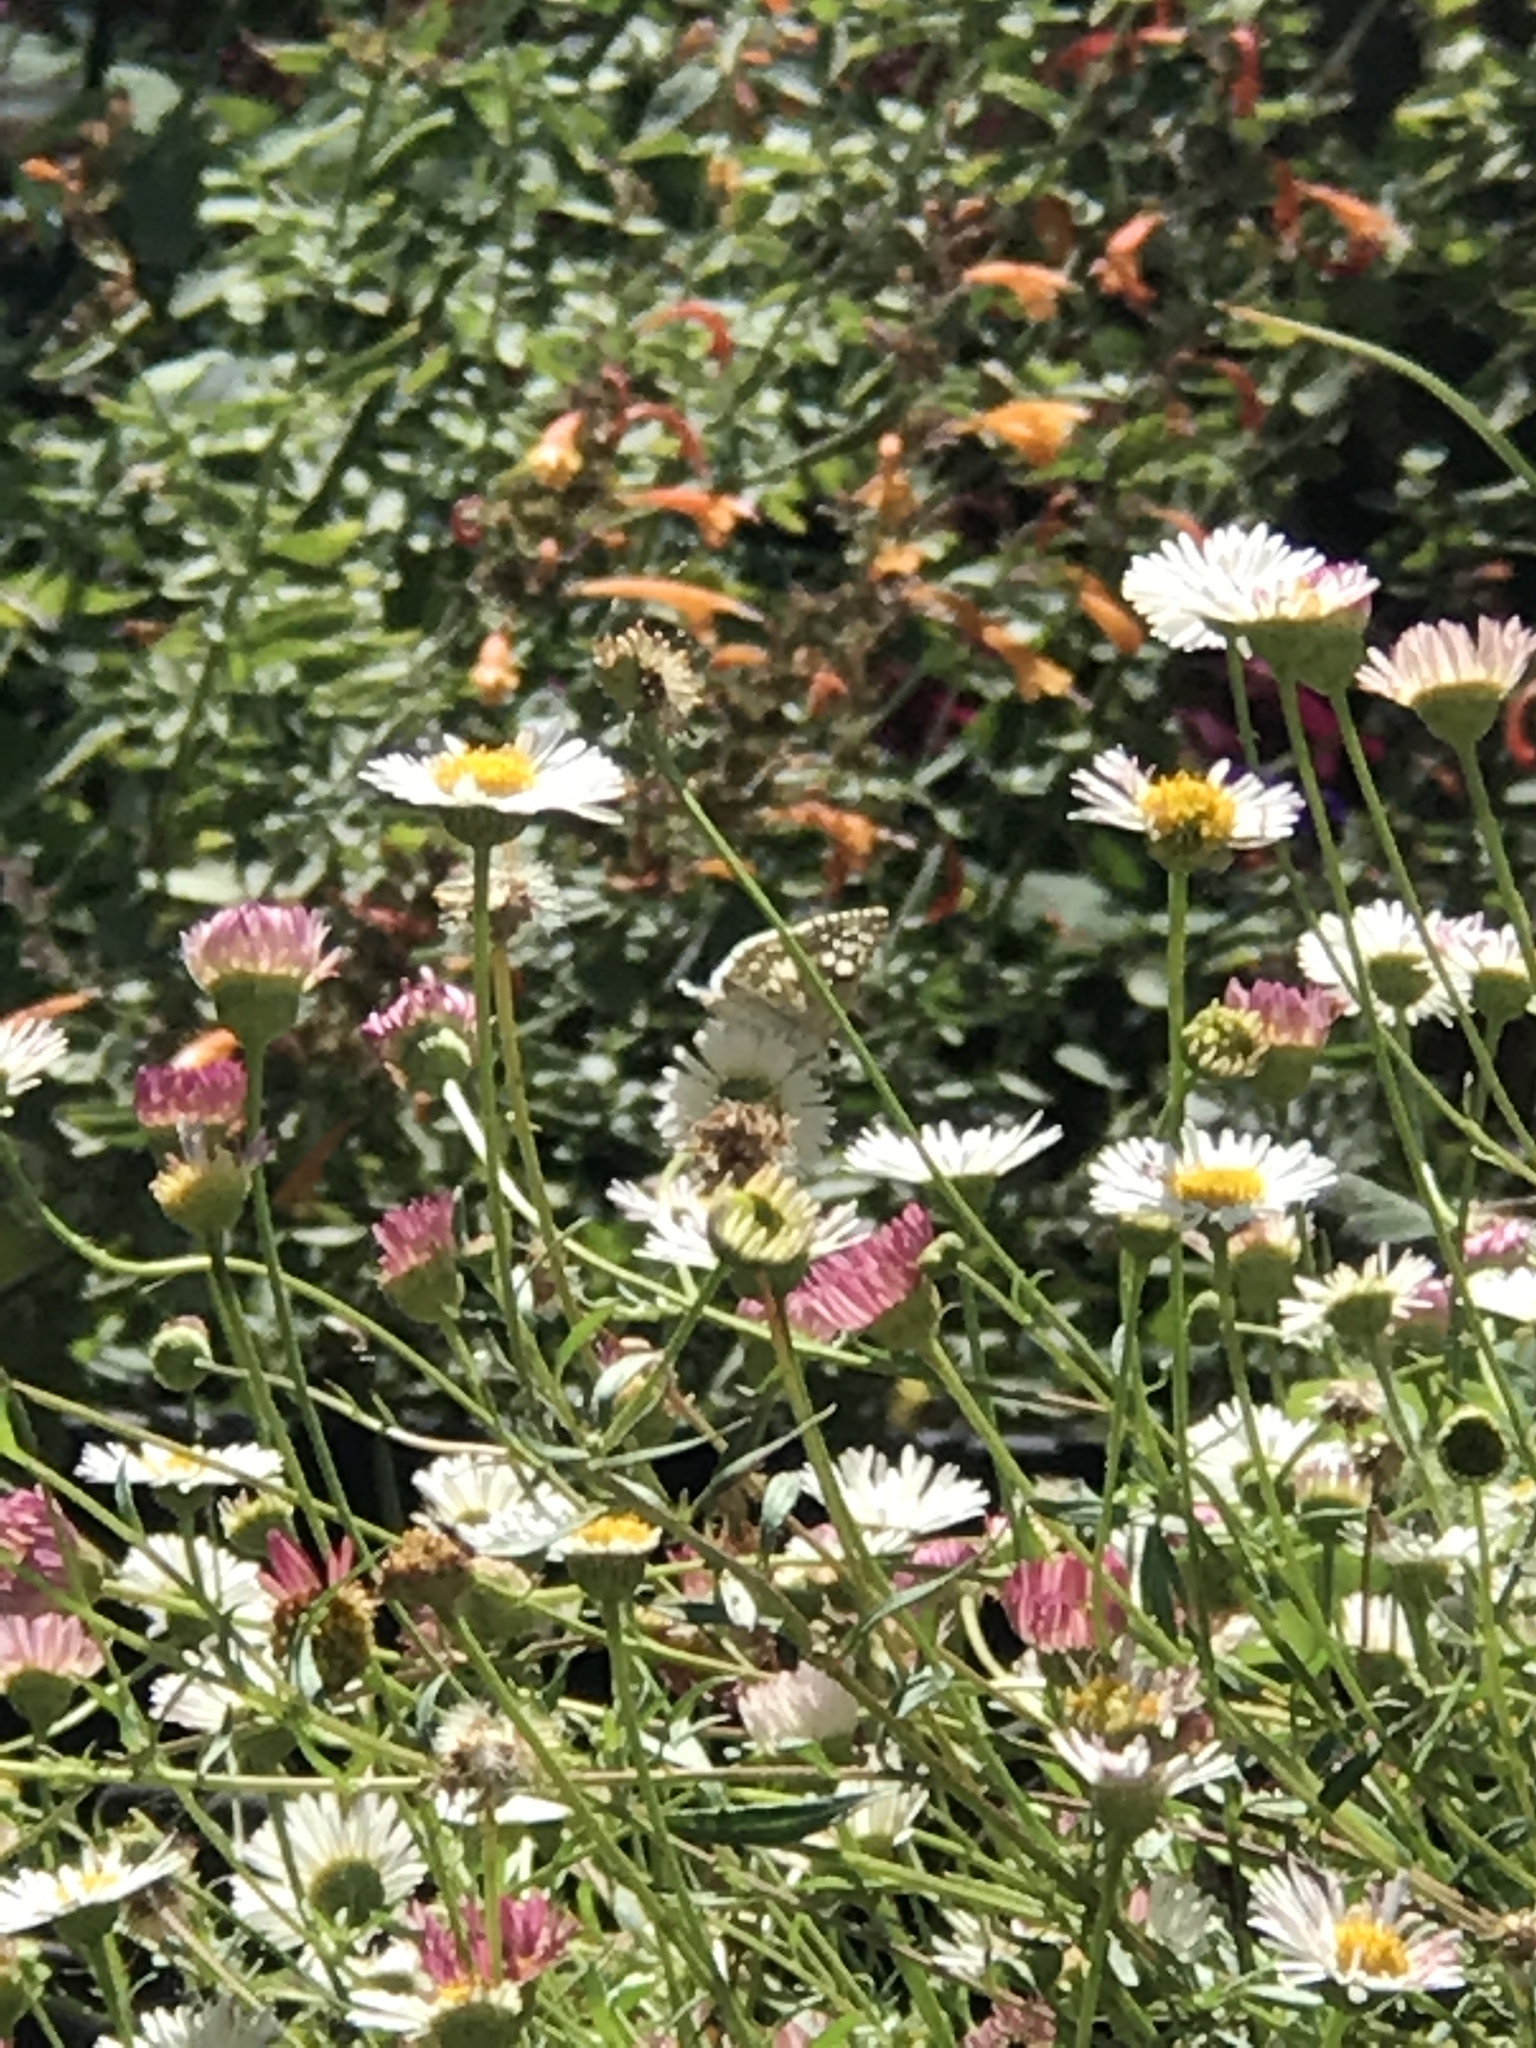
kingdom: Animalia
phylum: Arthropoda
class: Insecta
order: Lepidoptera
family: Hesperiidae
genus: Burnsius
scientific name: Burnsius communis
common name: Common checkered-skipper
